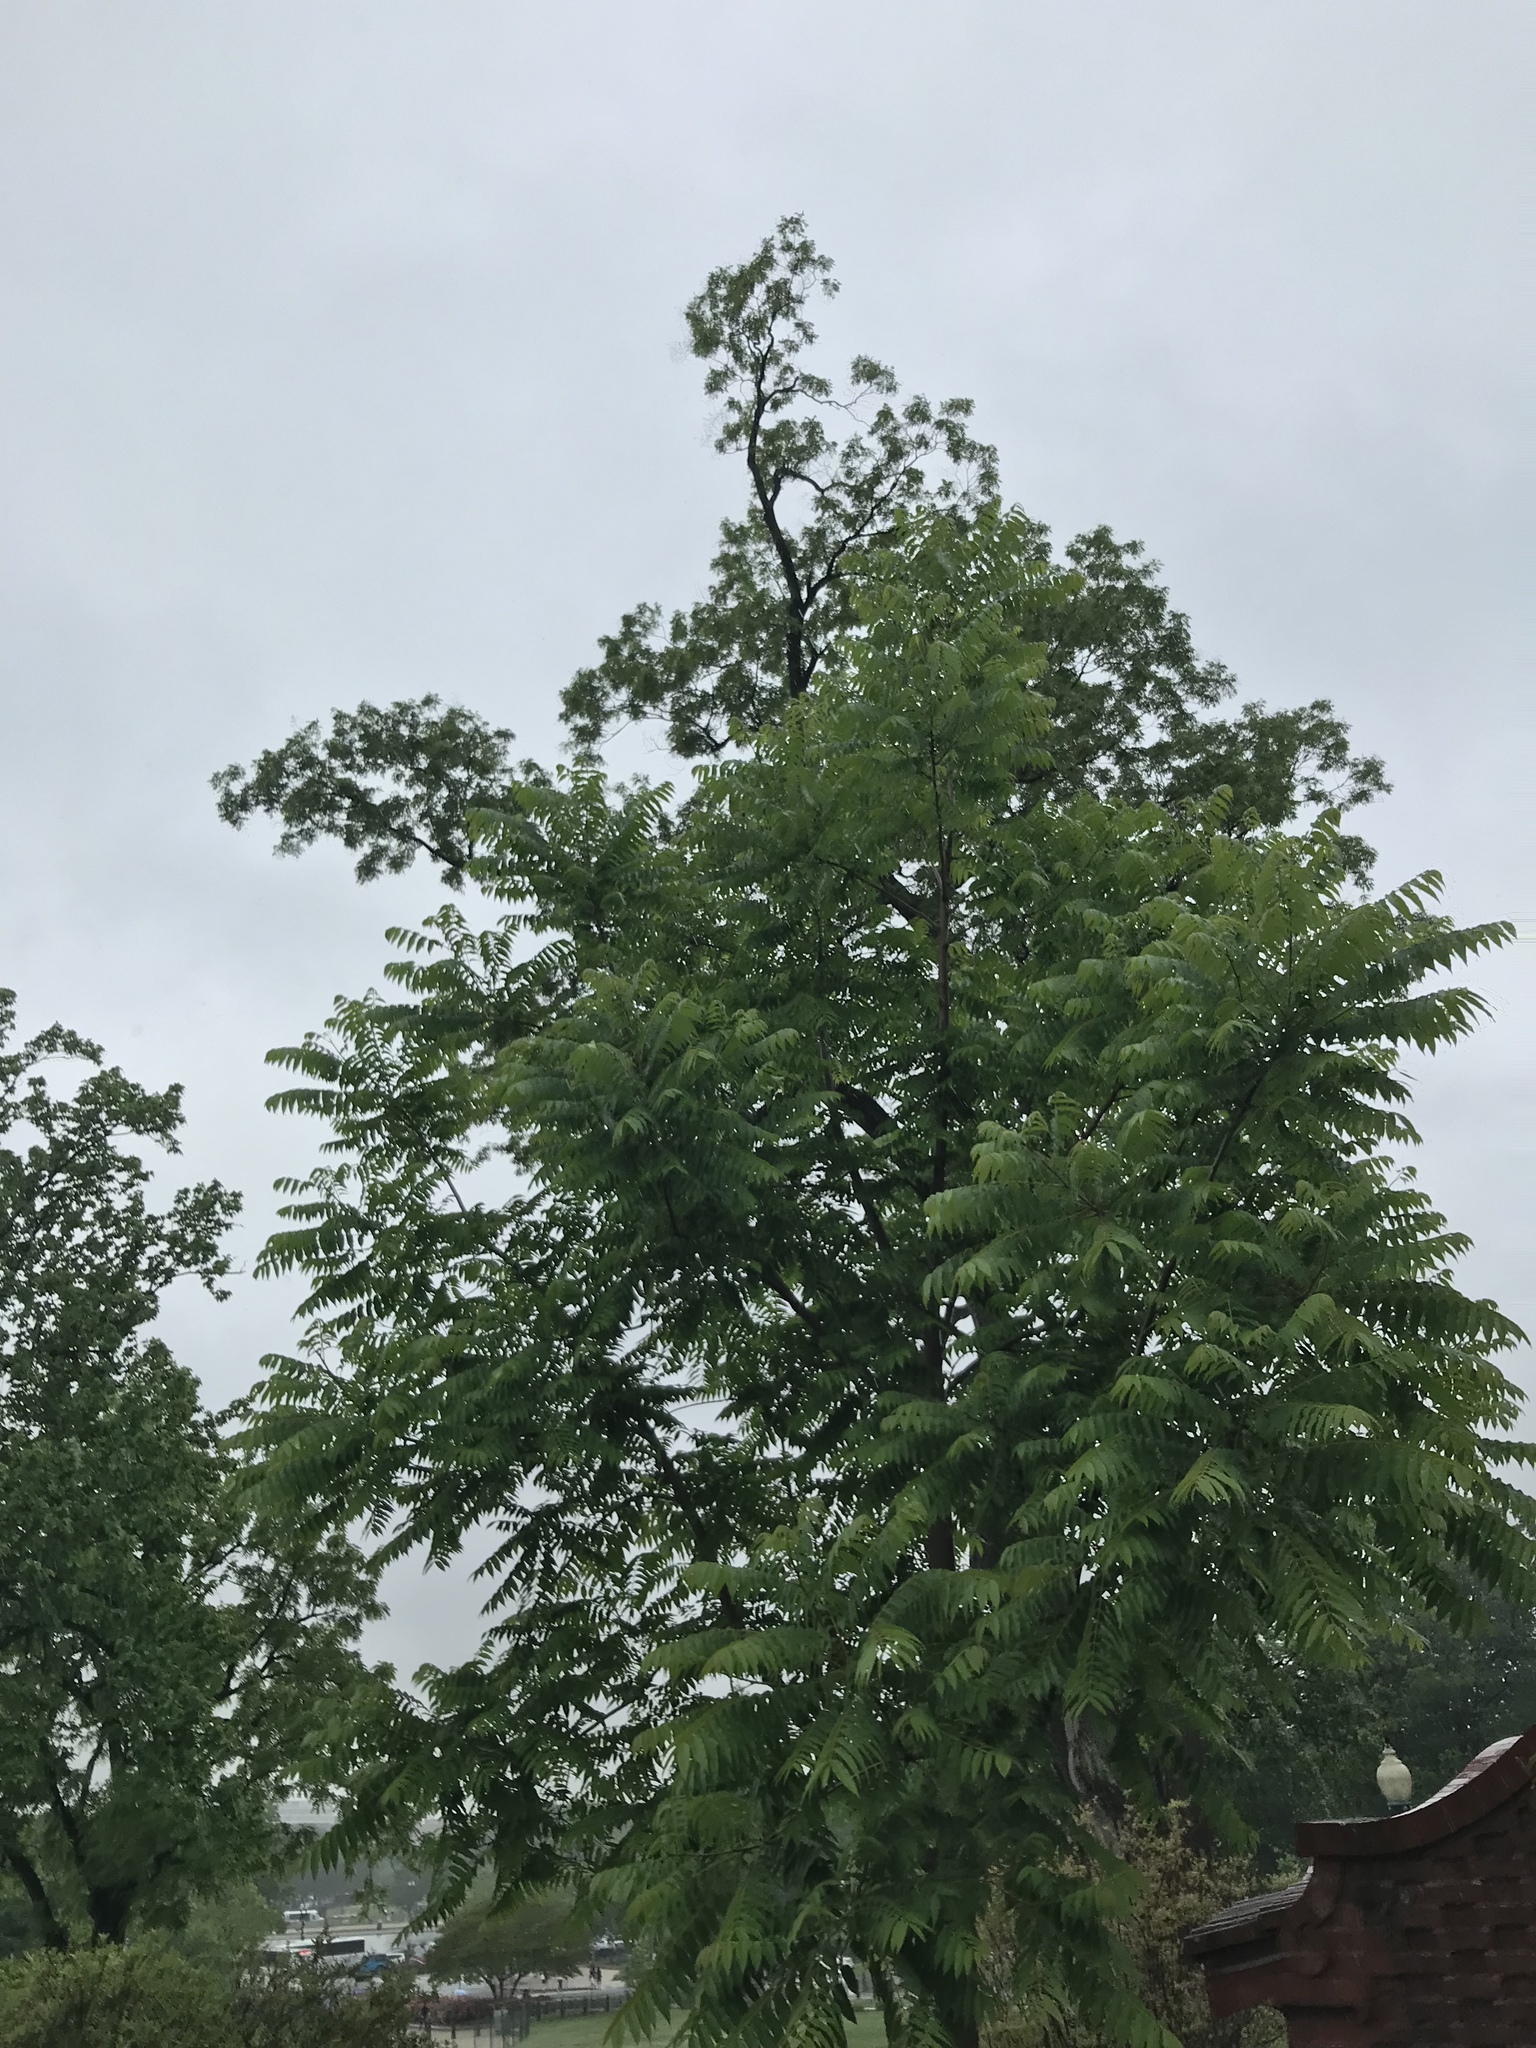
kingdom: Plantae
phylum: Tracheophyta
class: Magnoliopsida
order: Sapindales
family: Simaroubaceae
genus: Ailanthus
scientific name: Ailanthus altissima
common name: Tree-of-heaven
